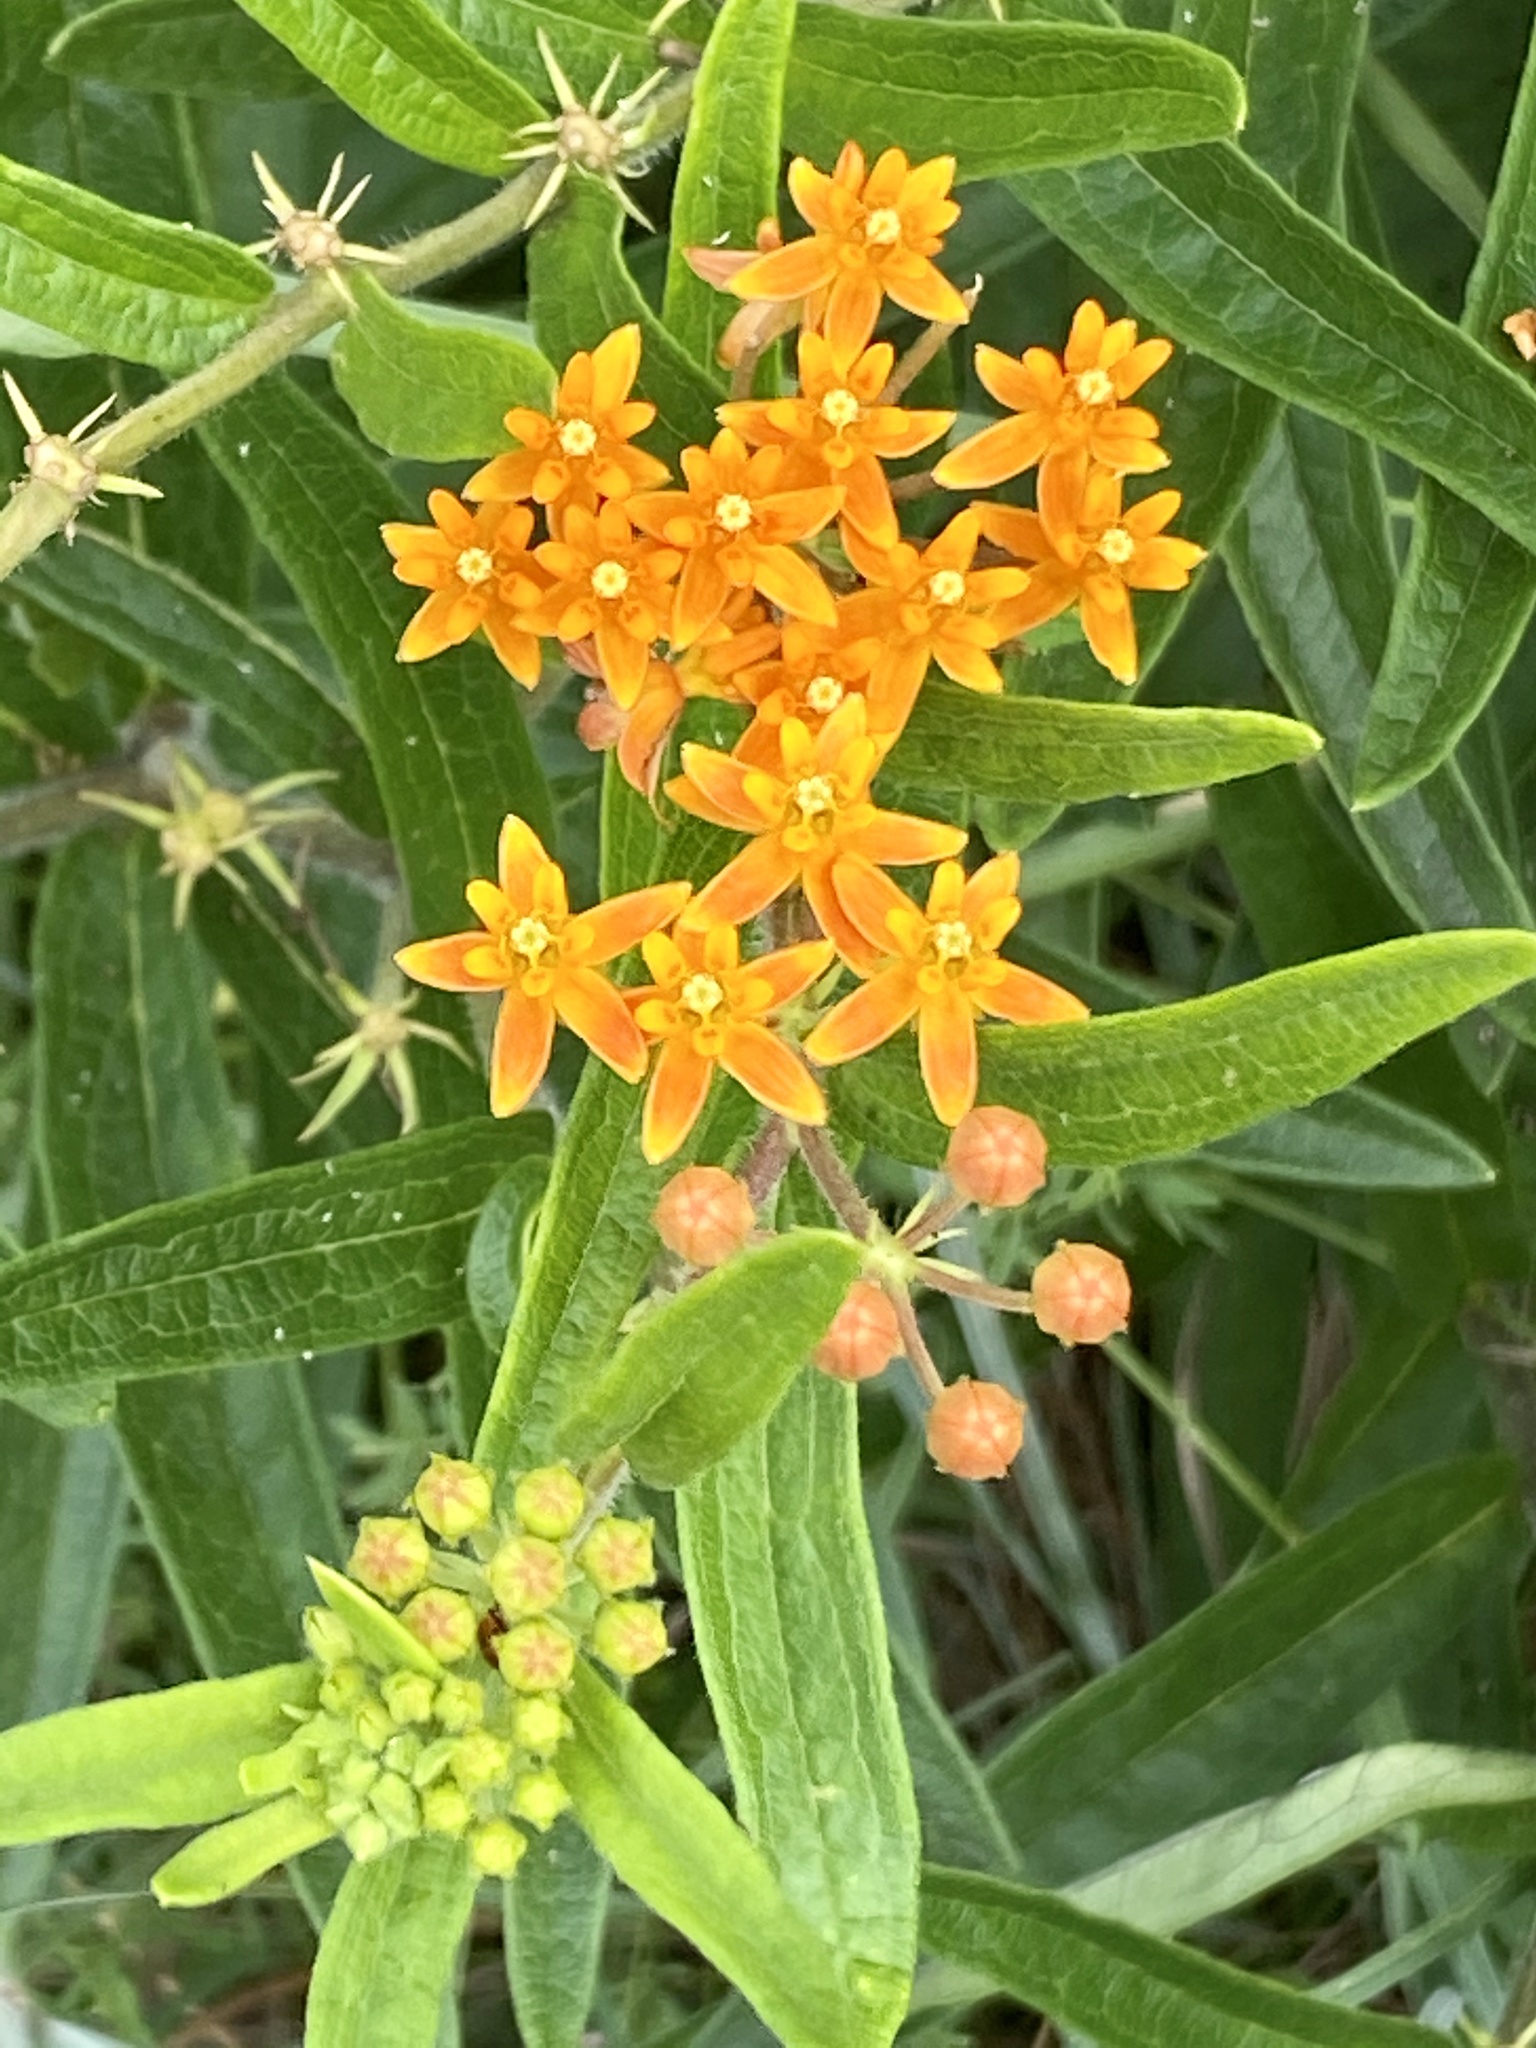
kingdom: Plantae
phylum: Tracheophyta
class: Magnoliopsida
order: Gentianales
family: Apocynaceae
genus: Asclepias
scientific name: Asclepias tuberosa
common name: Butterfly milkweed
